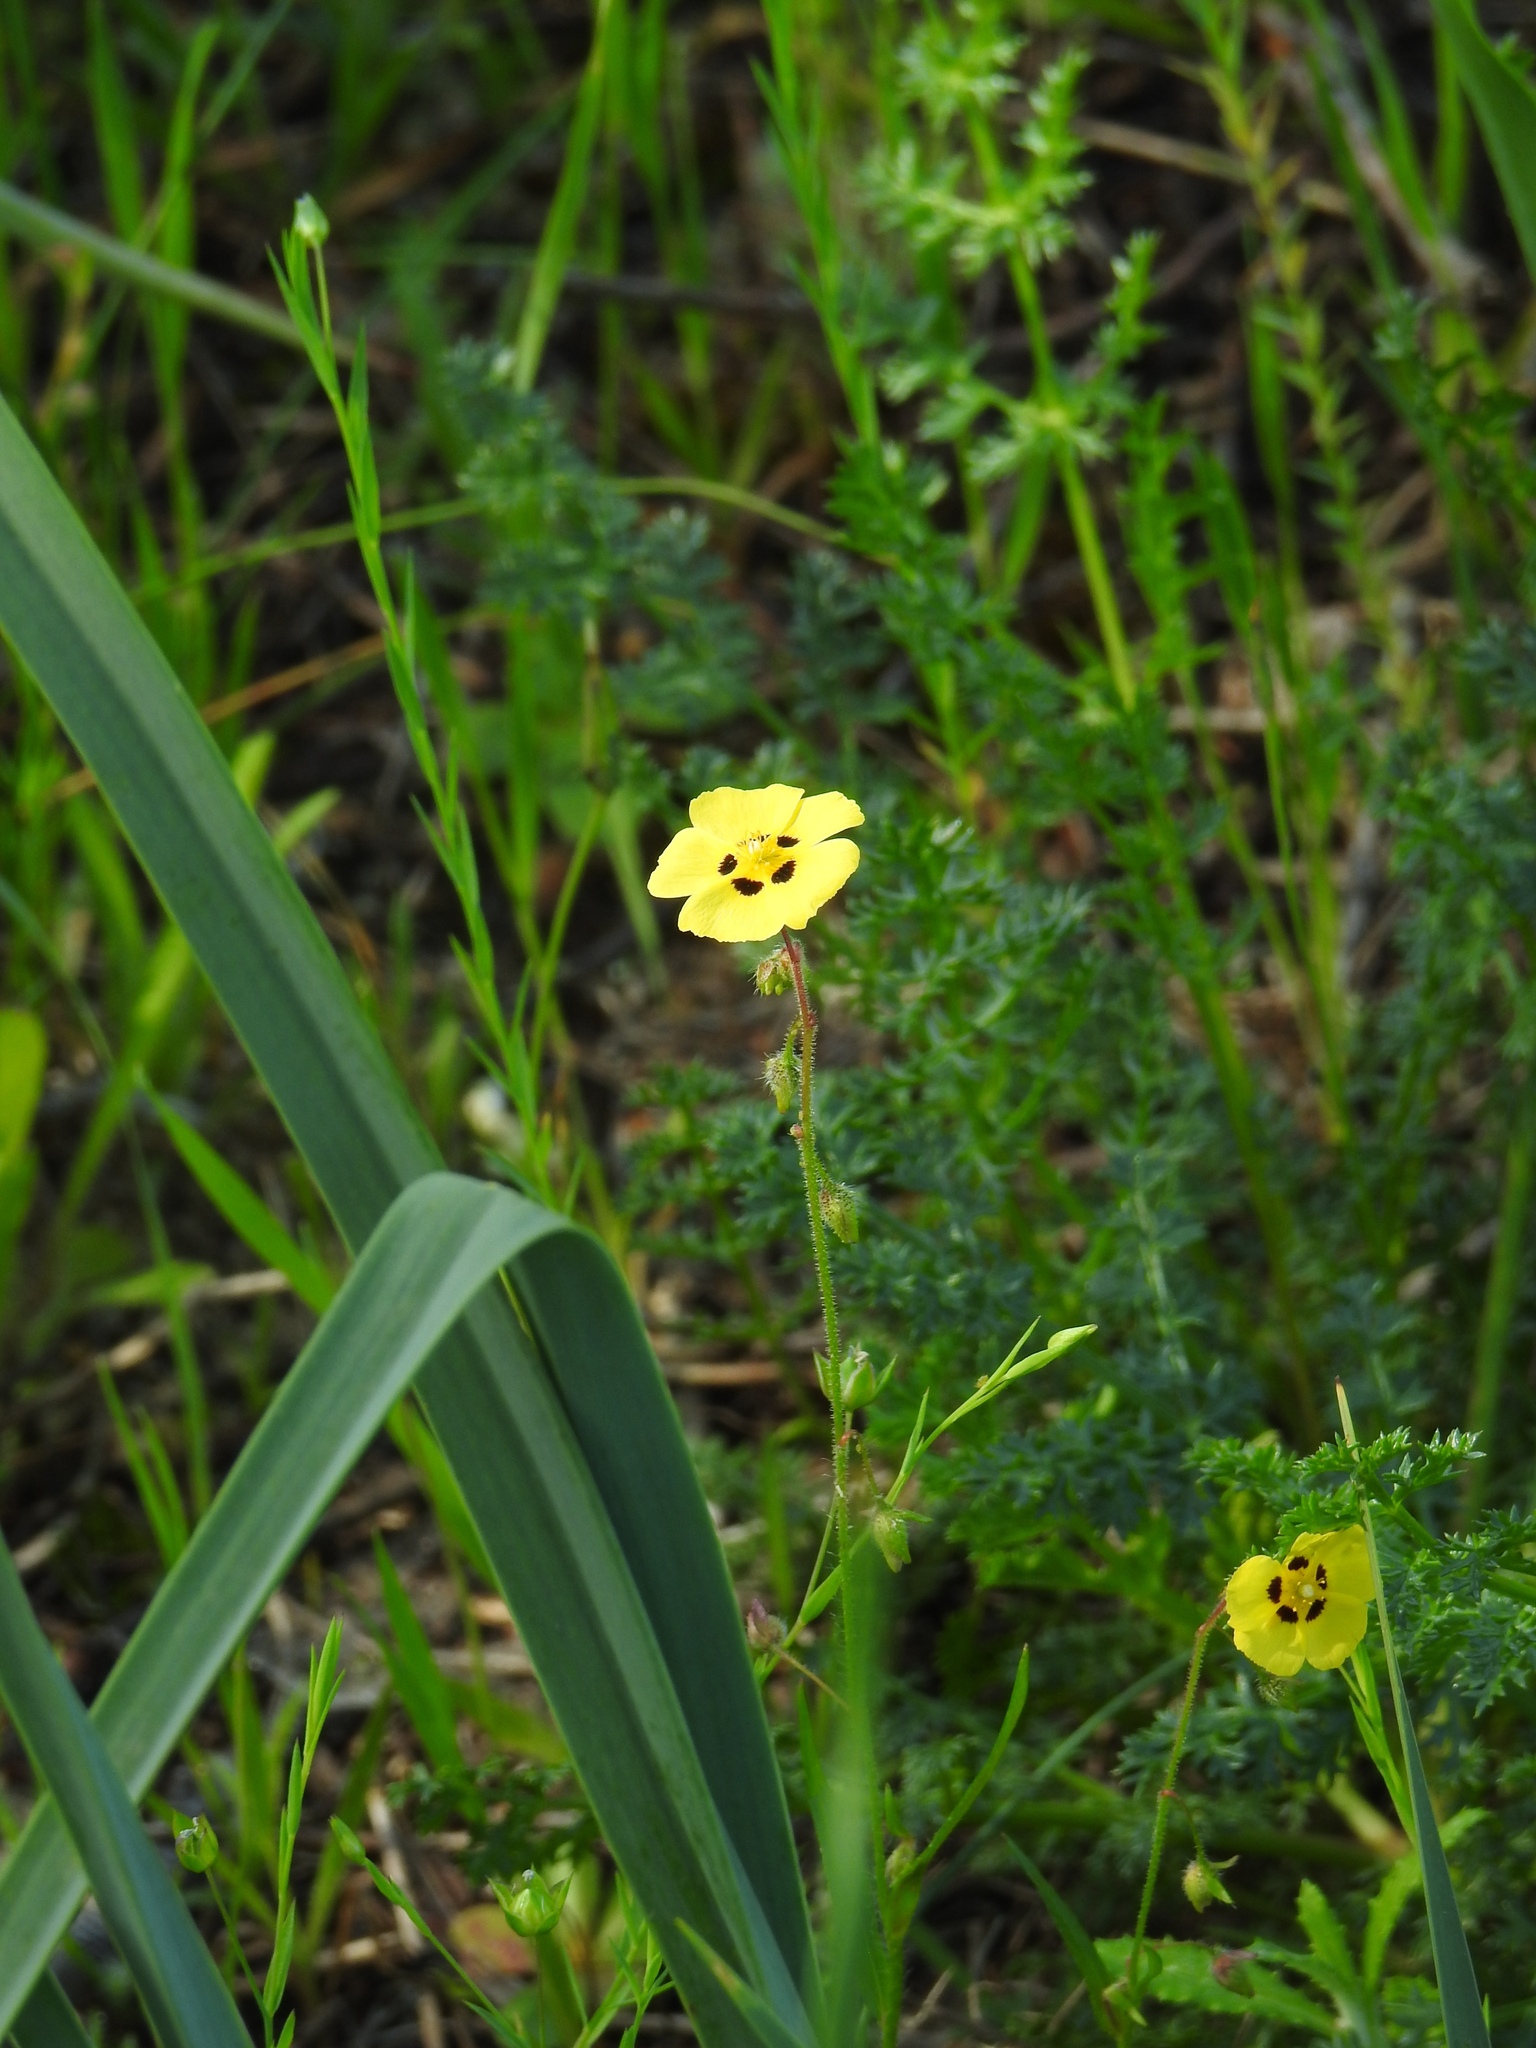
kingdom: Plantae
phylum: Tracheophyta
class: Magnoliopsida
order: Malvales
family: Cistaceae
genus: Tuberaria
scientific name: Tuberaria guttata
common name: Spotted rock-rose
